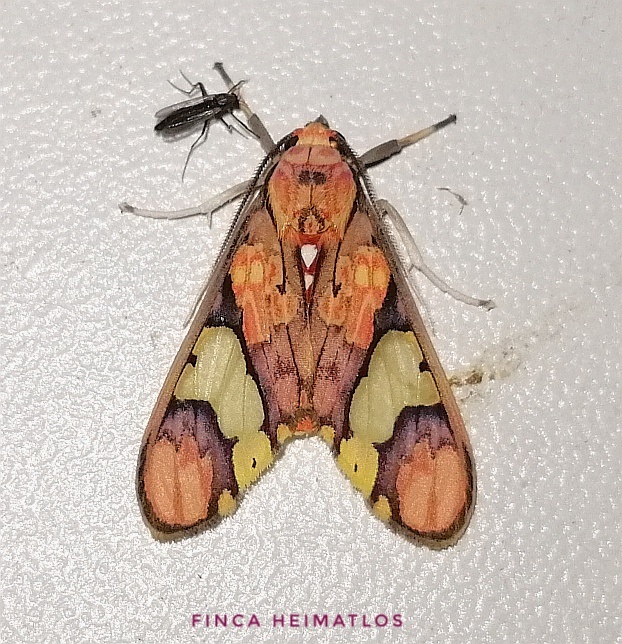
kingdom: Animalia
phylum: Arthropoda
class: Insecta
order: Lepidoptera
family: Erebidae
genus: Neonerita
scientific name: Neonerita dorsipuncta
